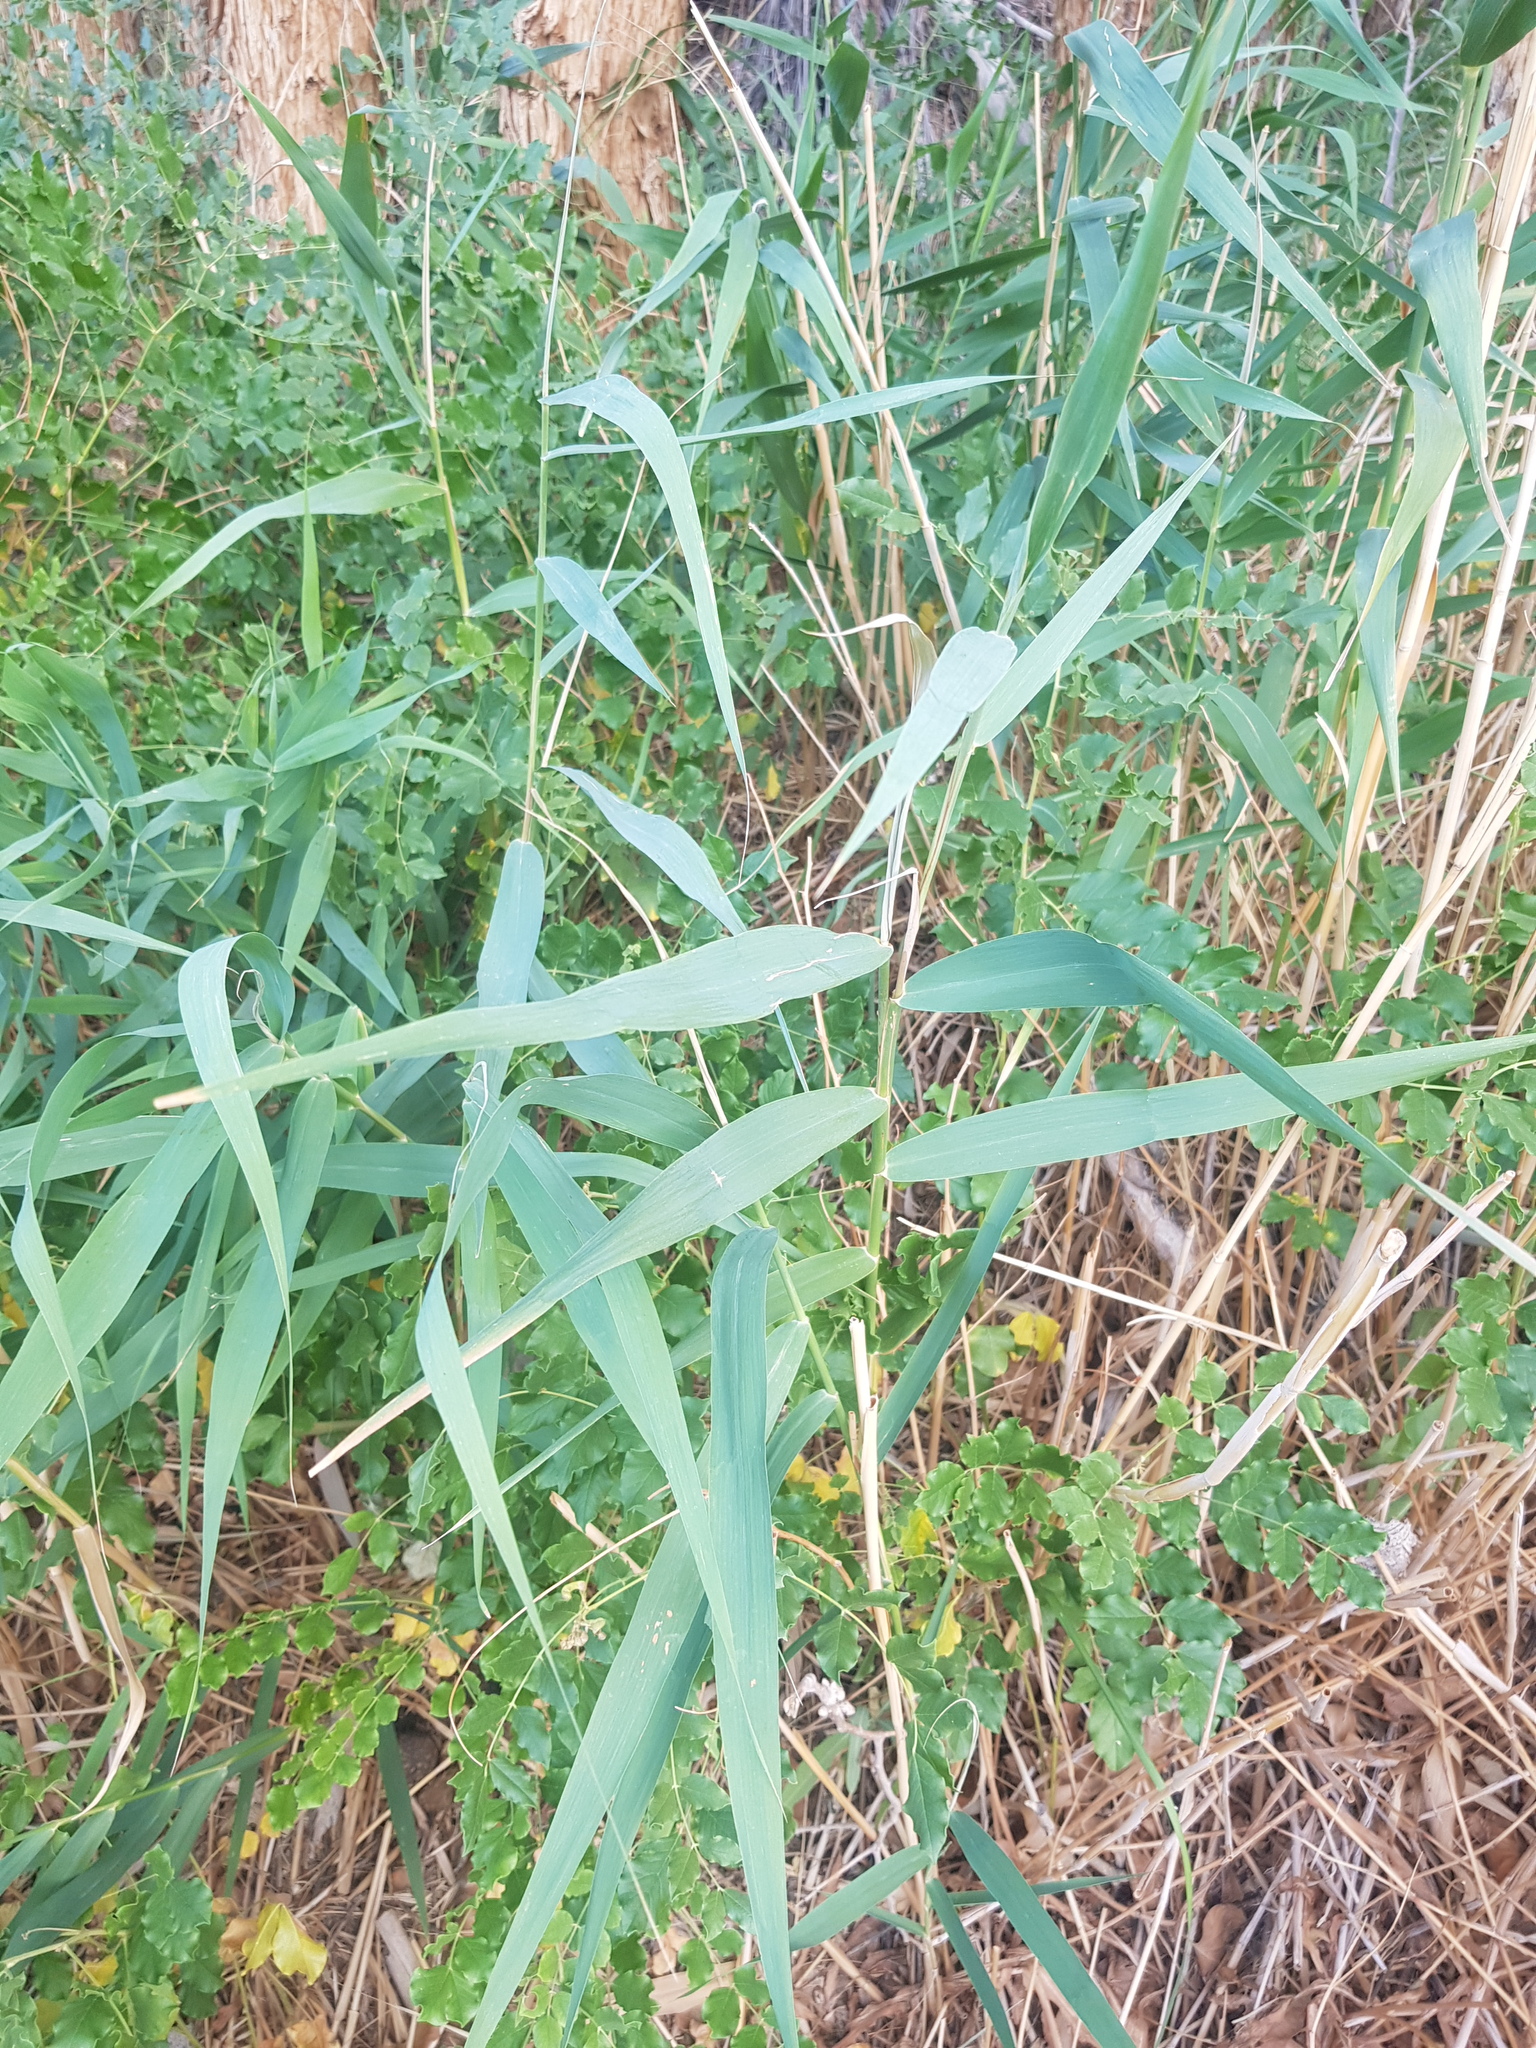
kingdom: Plantae
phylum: Tracheophyta
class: Liliopsida
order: Poales
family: Poaceae
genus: Phragmites
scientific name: Phragmites australis
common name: Common reed
